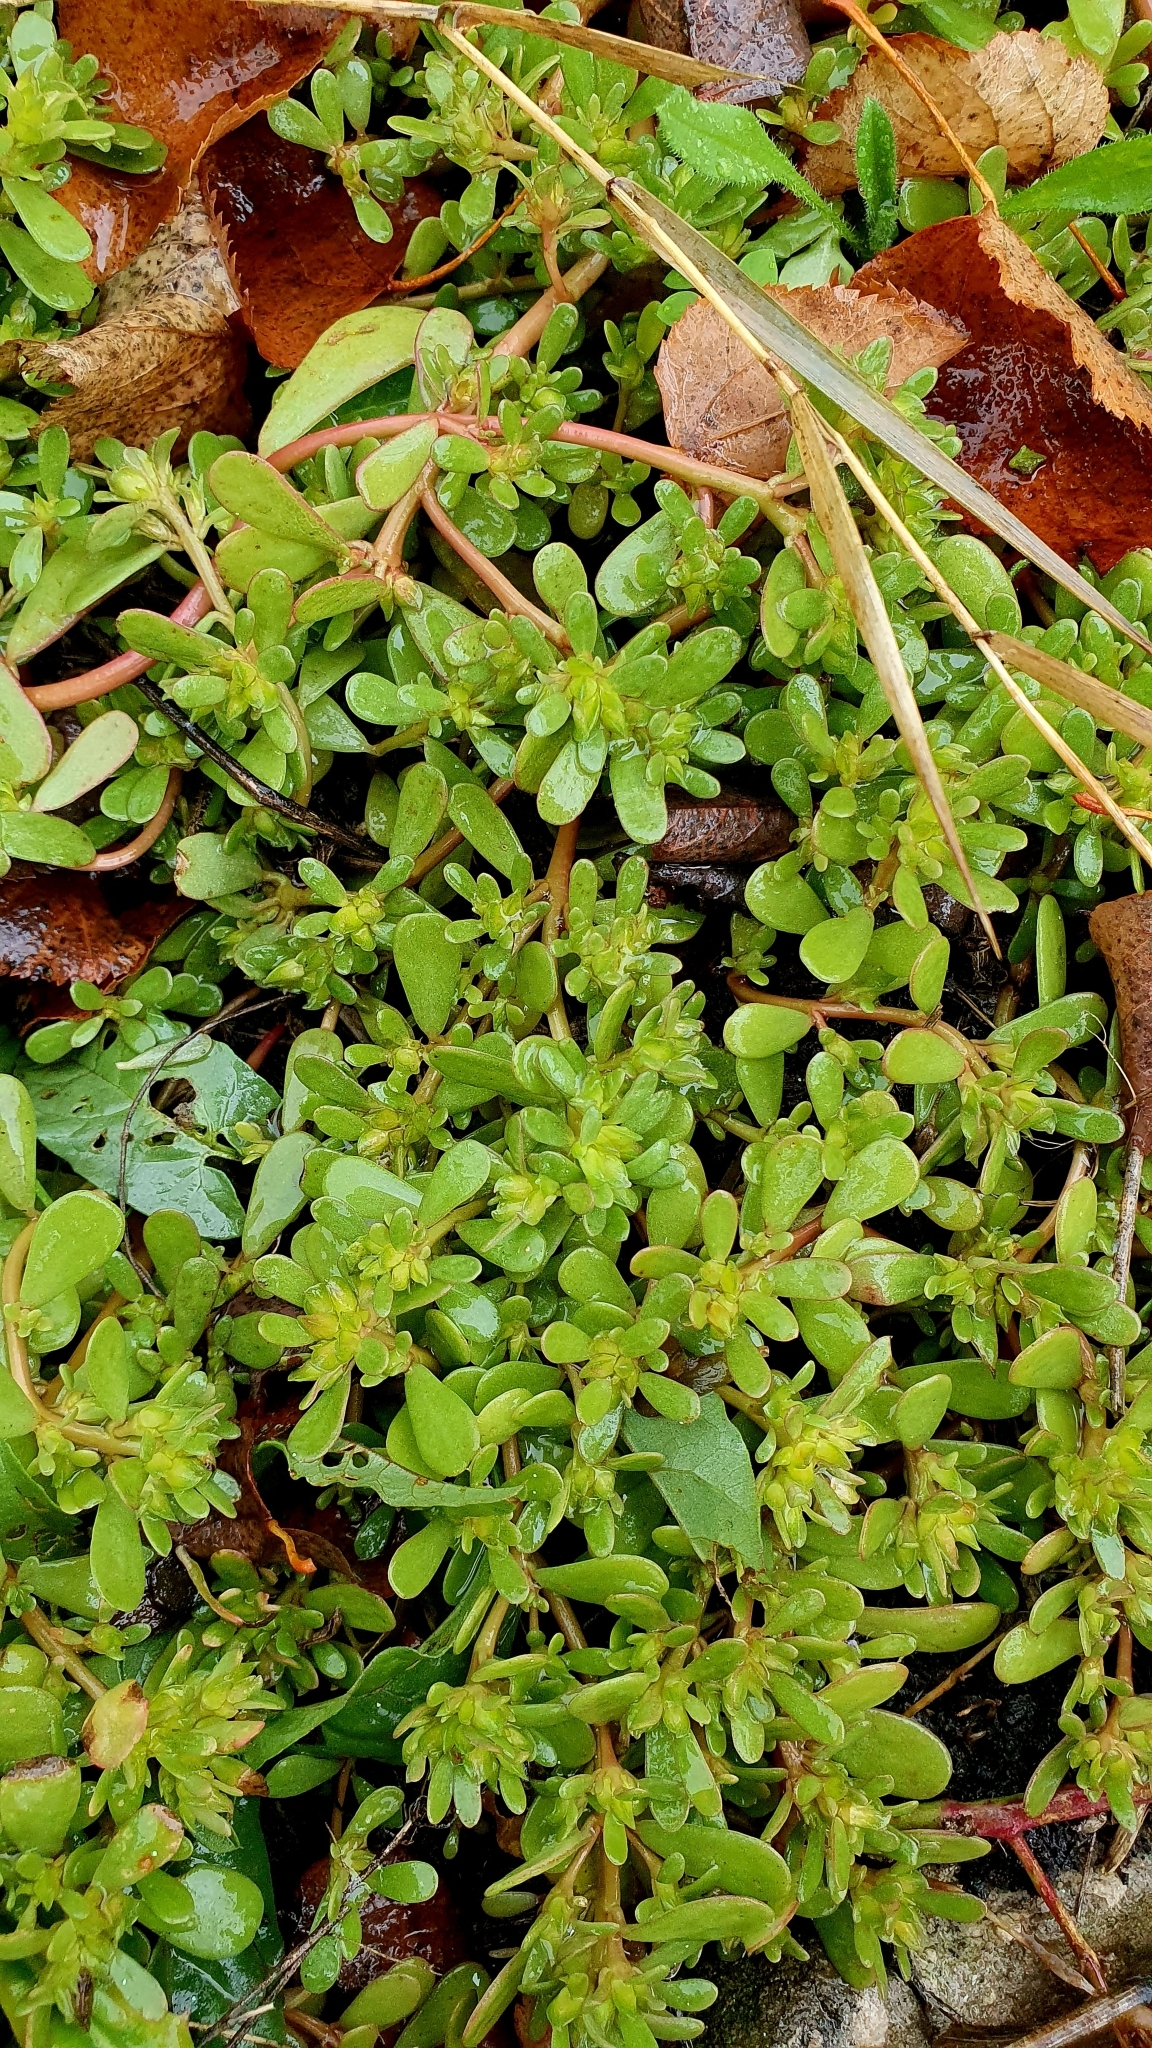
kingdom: Plantae
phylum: Tracheophyta
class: Magnoliopsida
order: Caryophyllales
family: Portulacaceae
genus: Portulaca
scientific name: Portulaca oleracea
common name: Common purslane
